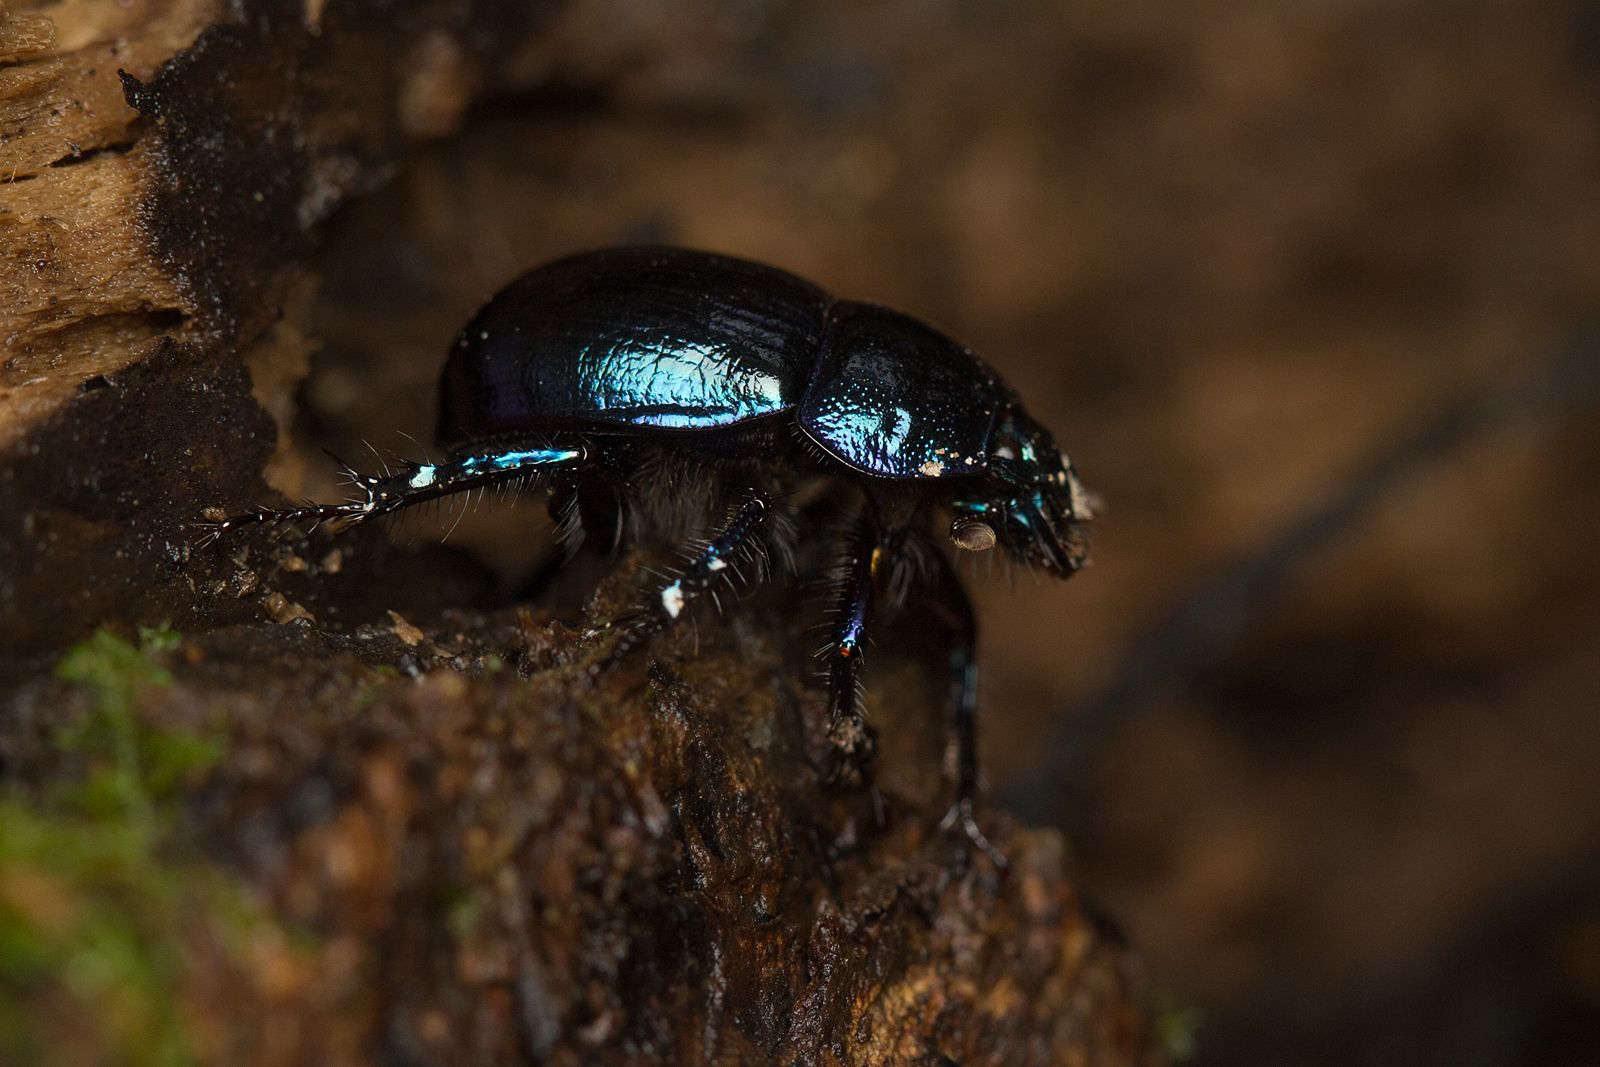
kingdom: Animalia
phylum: Arthropoda
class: Insecta
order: Coleoptera
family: Geotrupidae
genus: Anoplotrupes
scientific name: Anoplotrupes stercorosus
